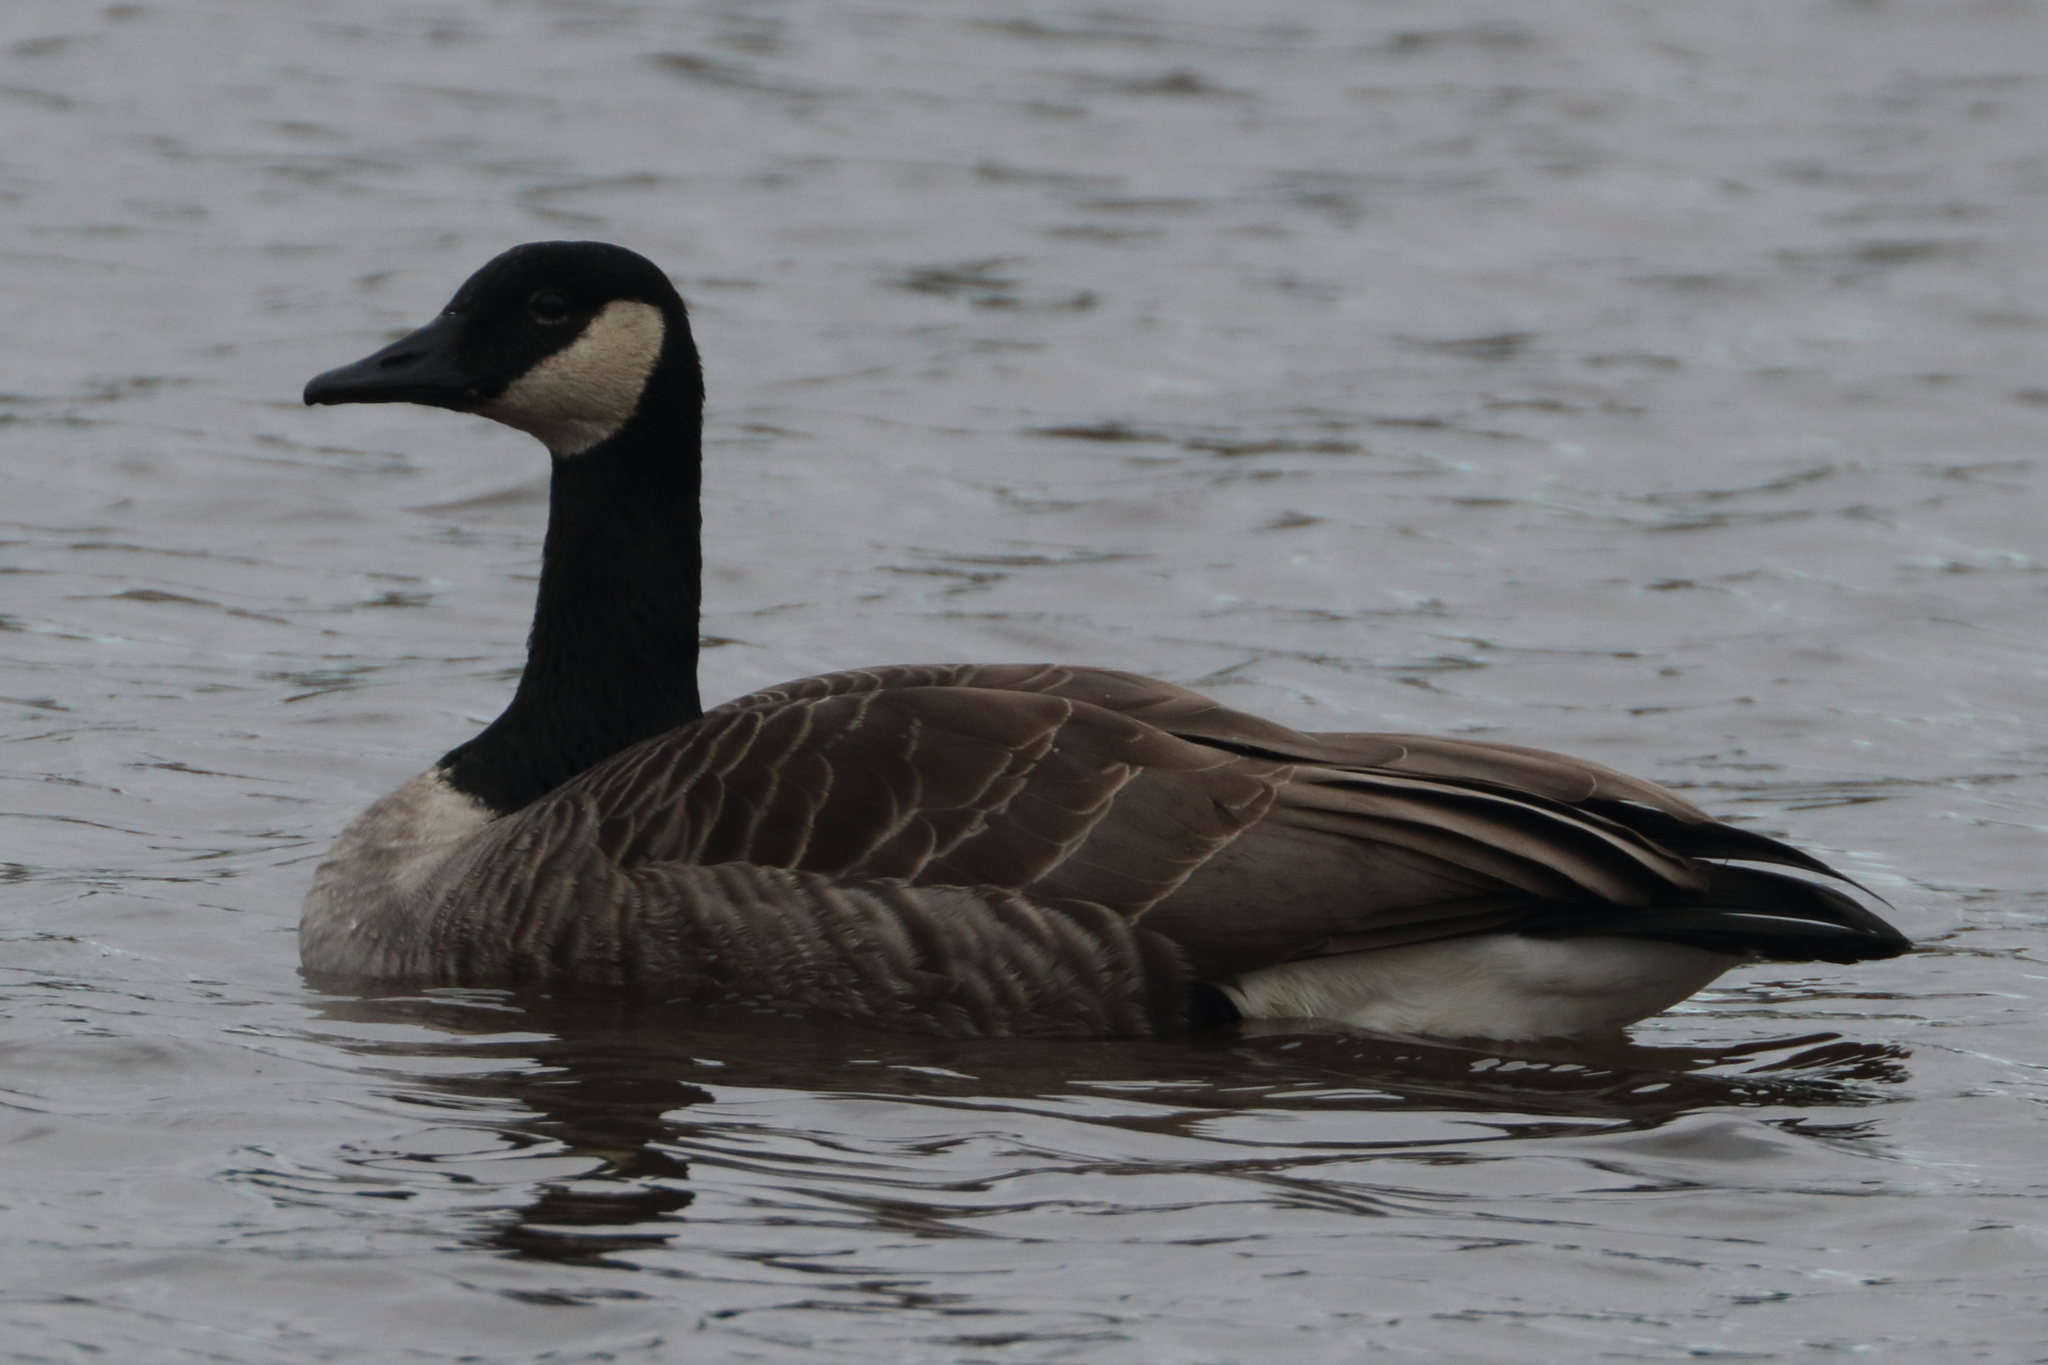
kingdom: Animalia
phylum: Chordata
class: Aves
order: Anseriformes
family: Anatidae
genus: Branta
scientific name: Branta canadensis
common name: Canada goose
